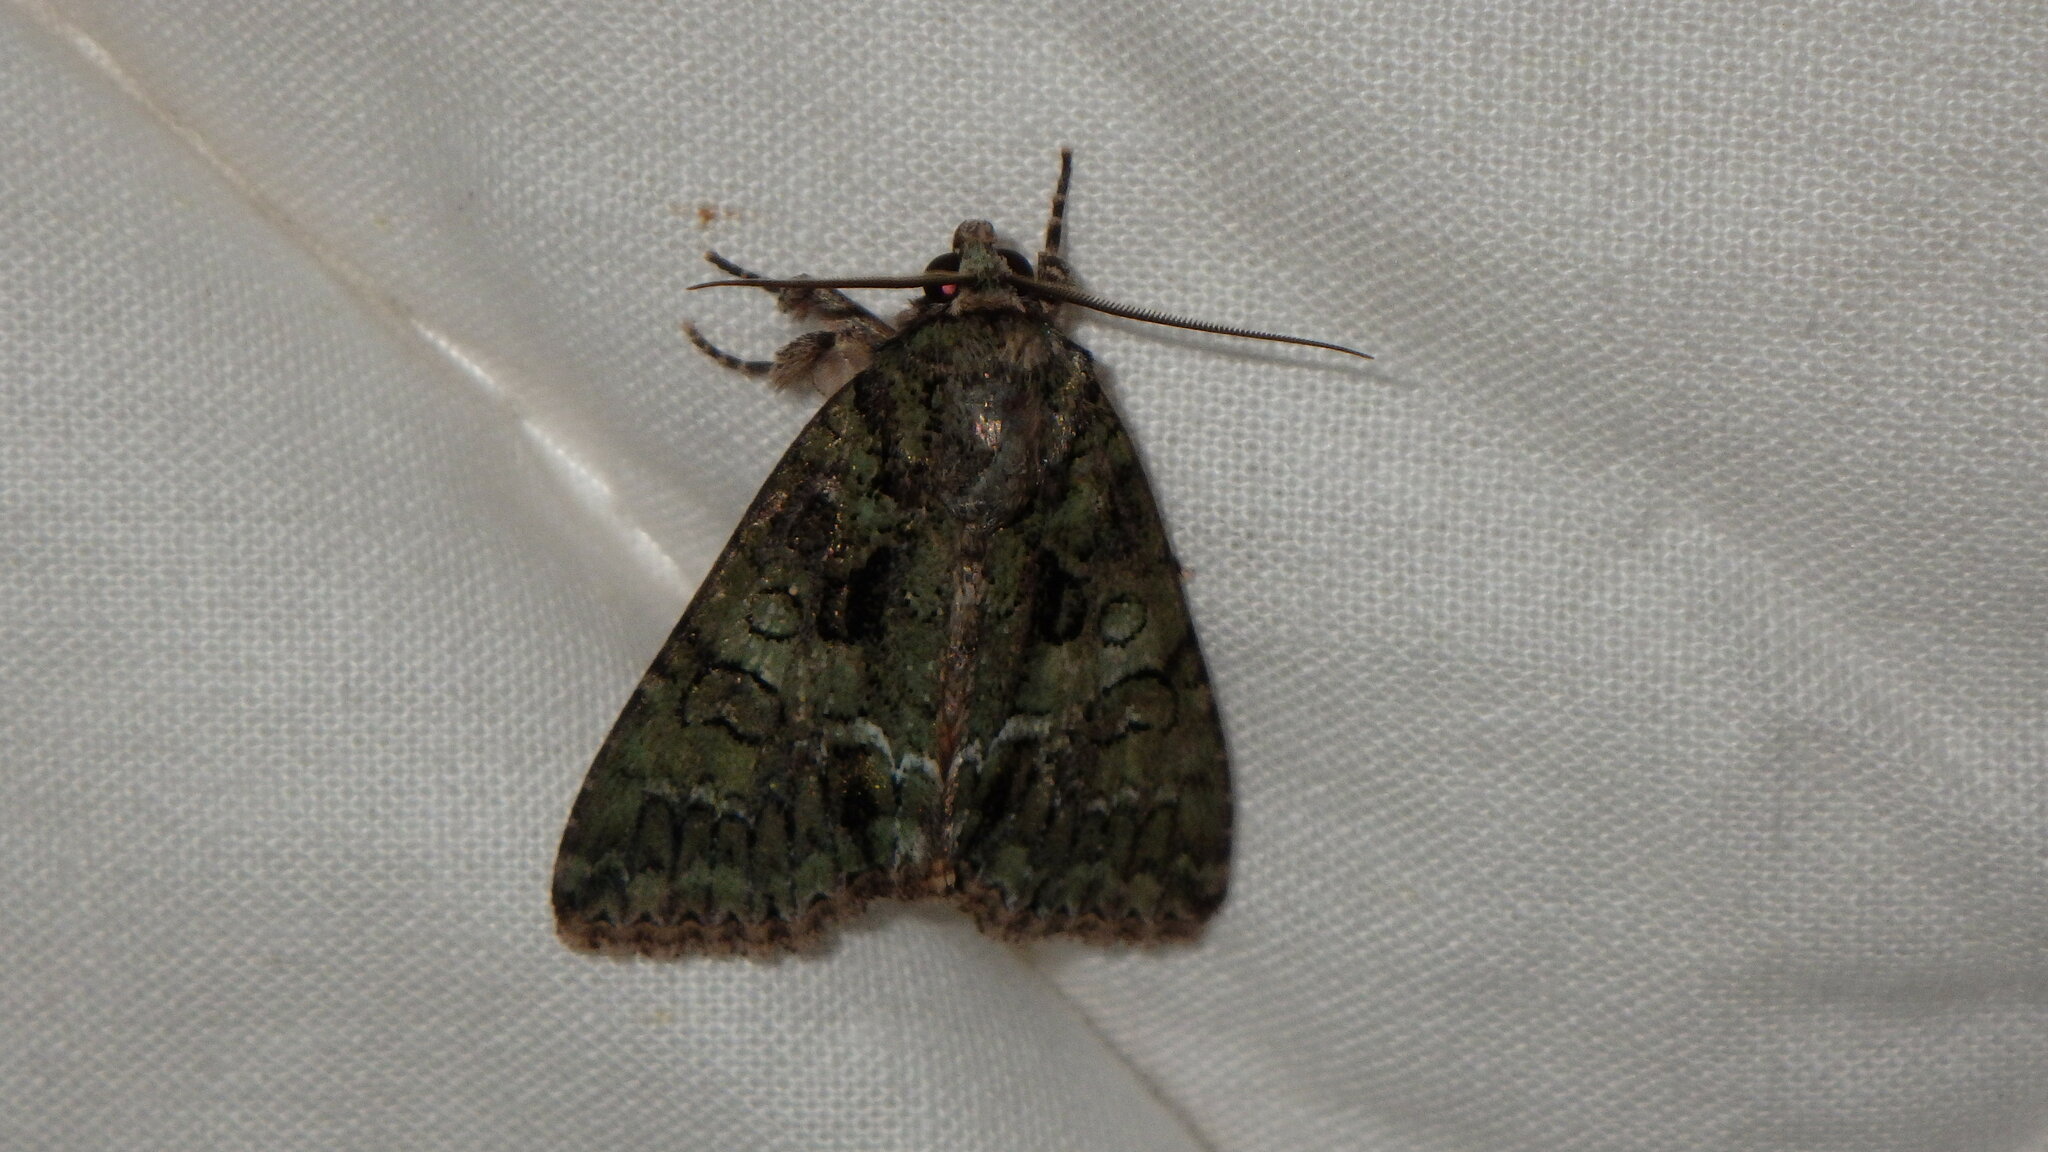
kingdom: Animalia
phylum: Arthropoda
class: Insecta
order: Lepidoptera
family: Noctuidae
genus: Polyphaenis
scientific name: Polyphaenis sericata
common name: Guernsey underwing
